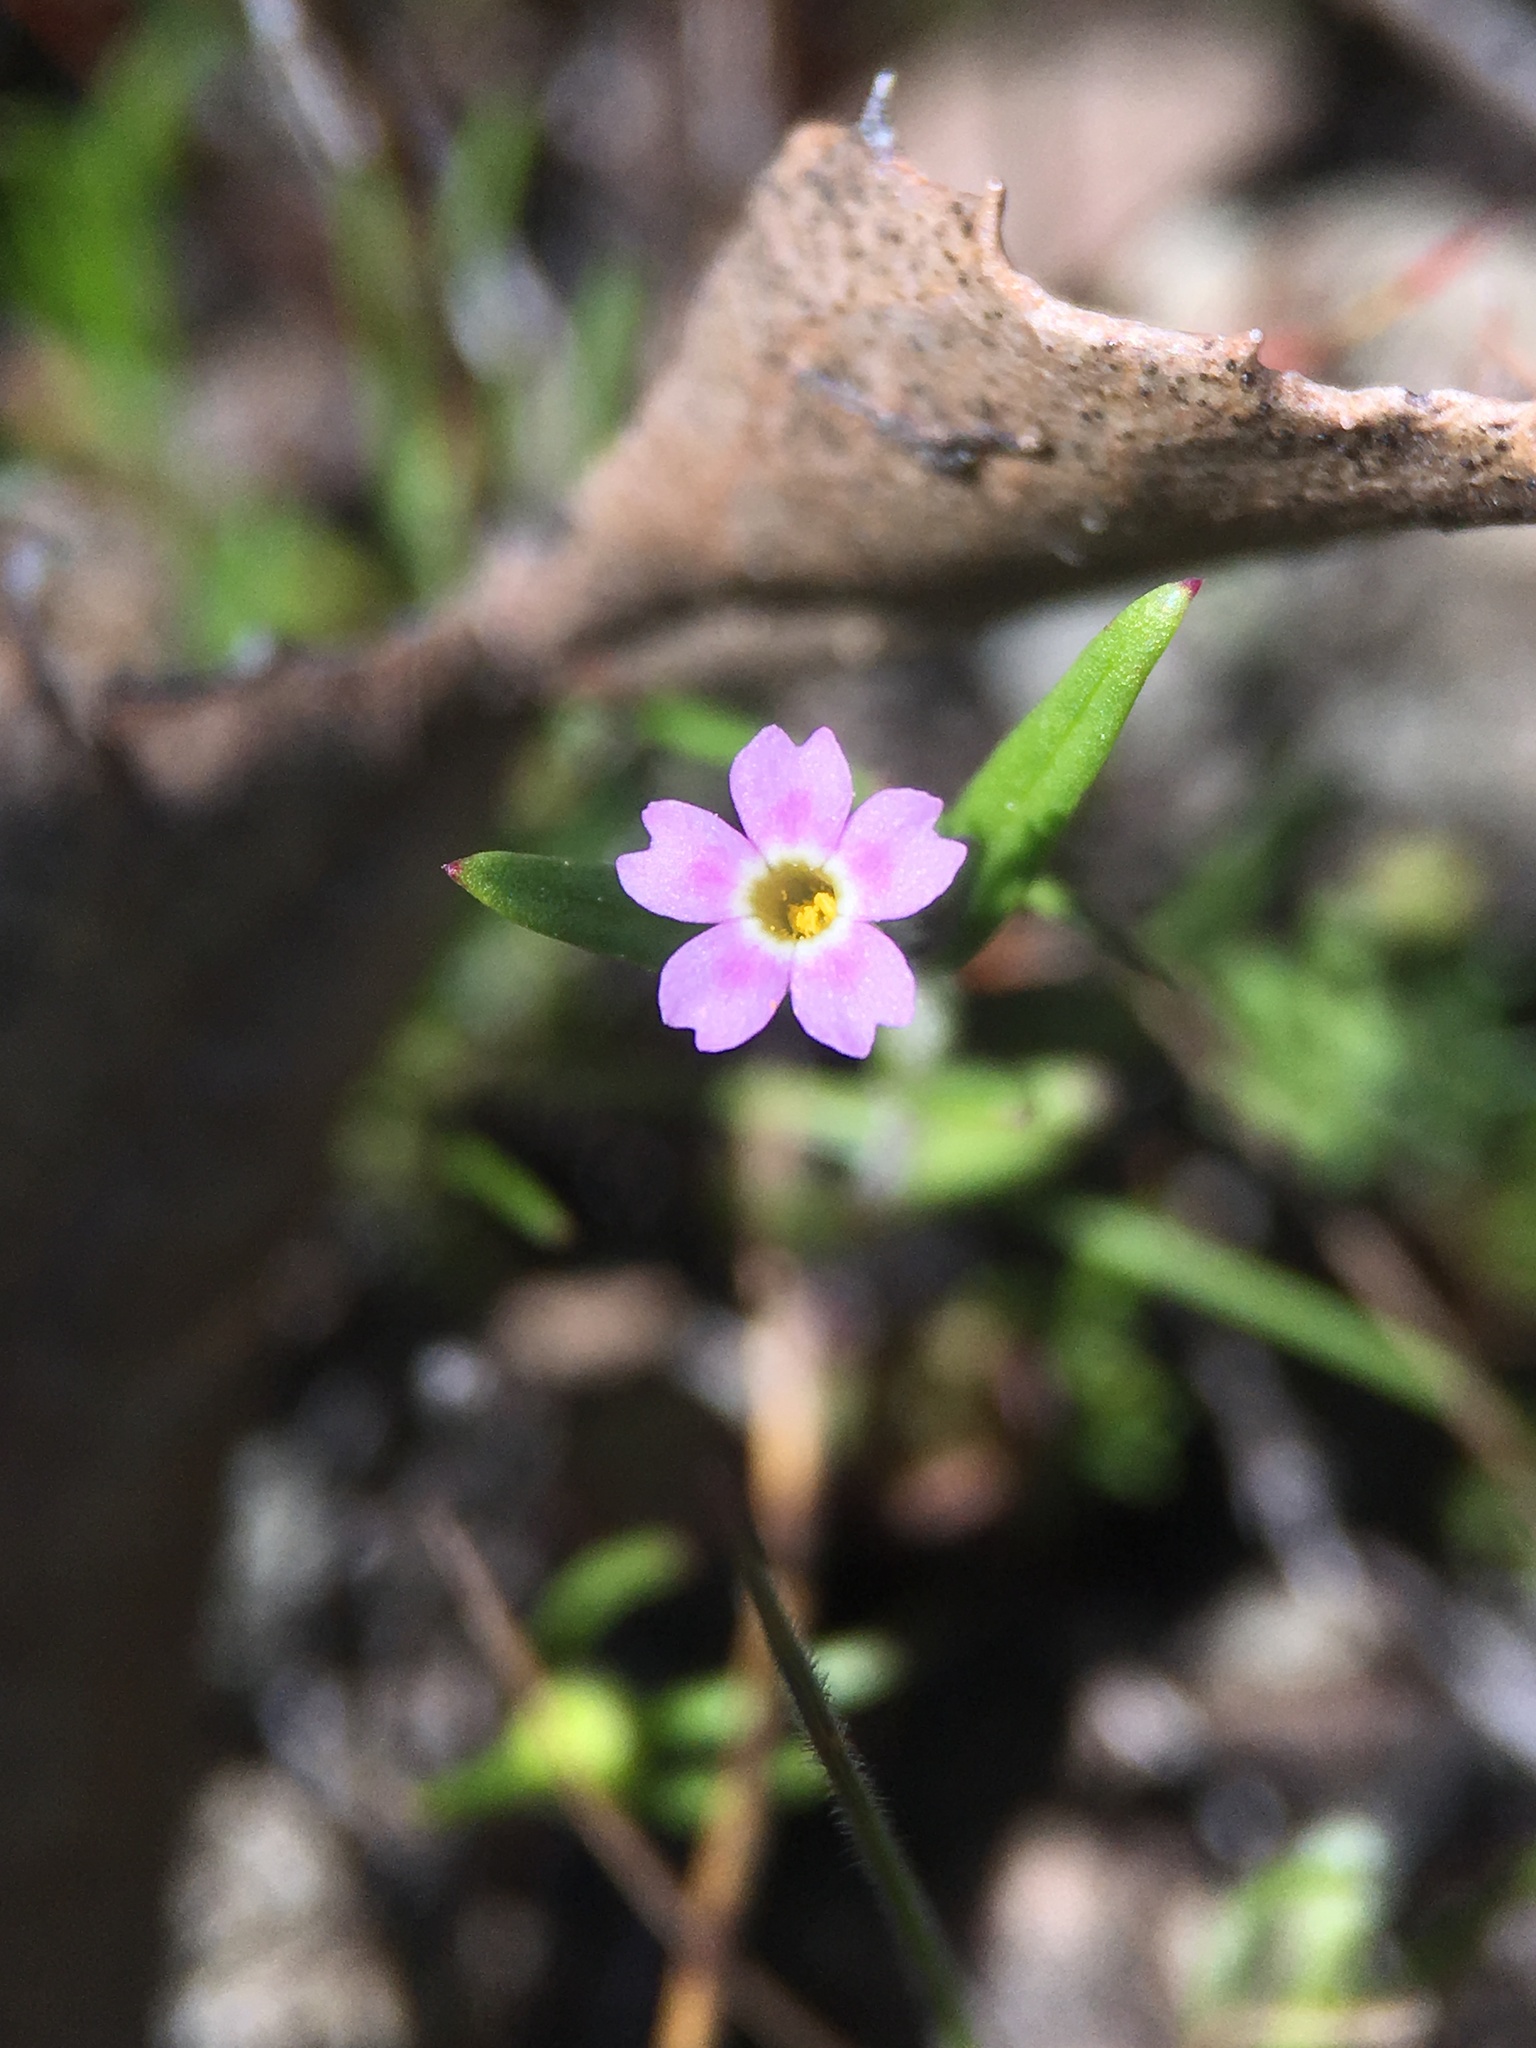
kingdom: Plantae
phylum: Tracheophyta
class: Magnoliopsida
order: Ericales
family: Polemoniaceae
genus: Phlox
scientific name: Phlox gracilis
